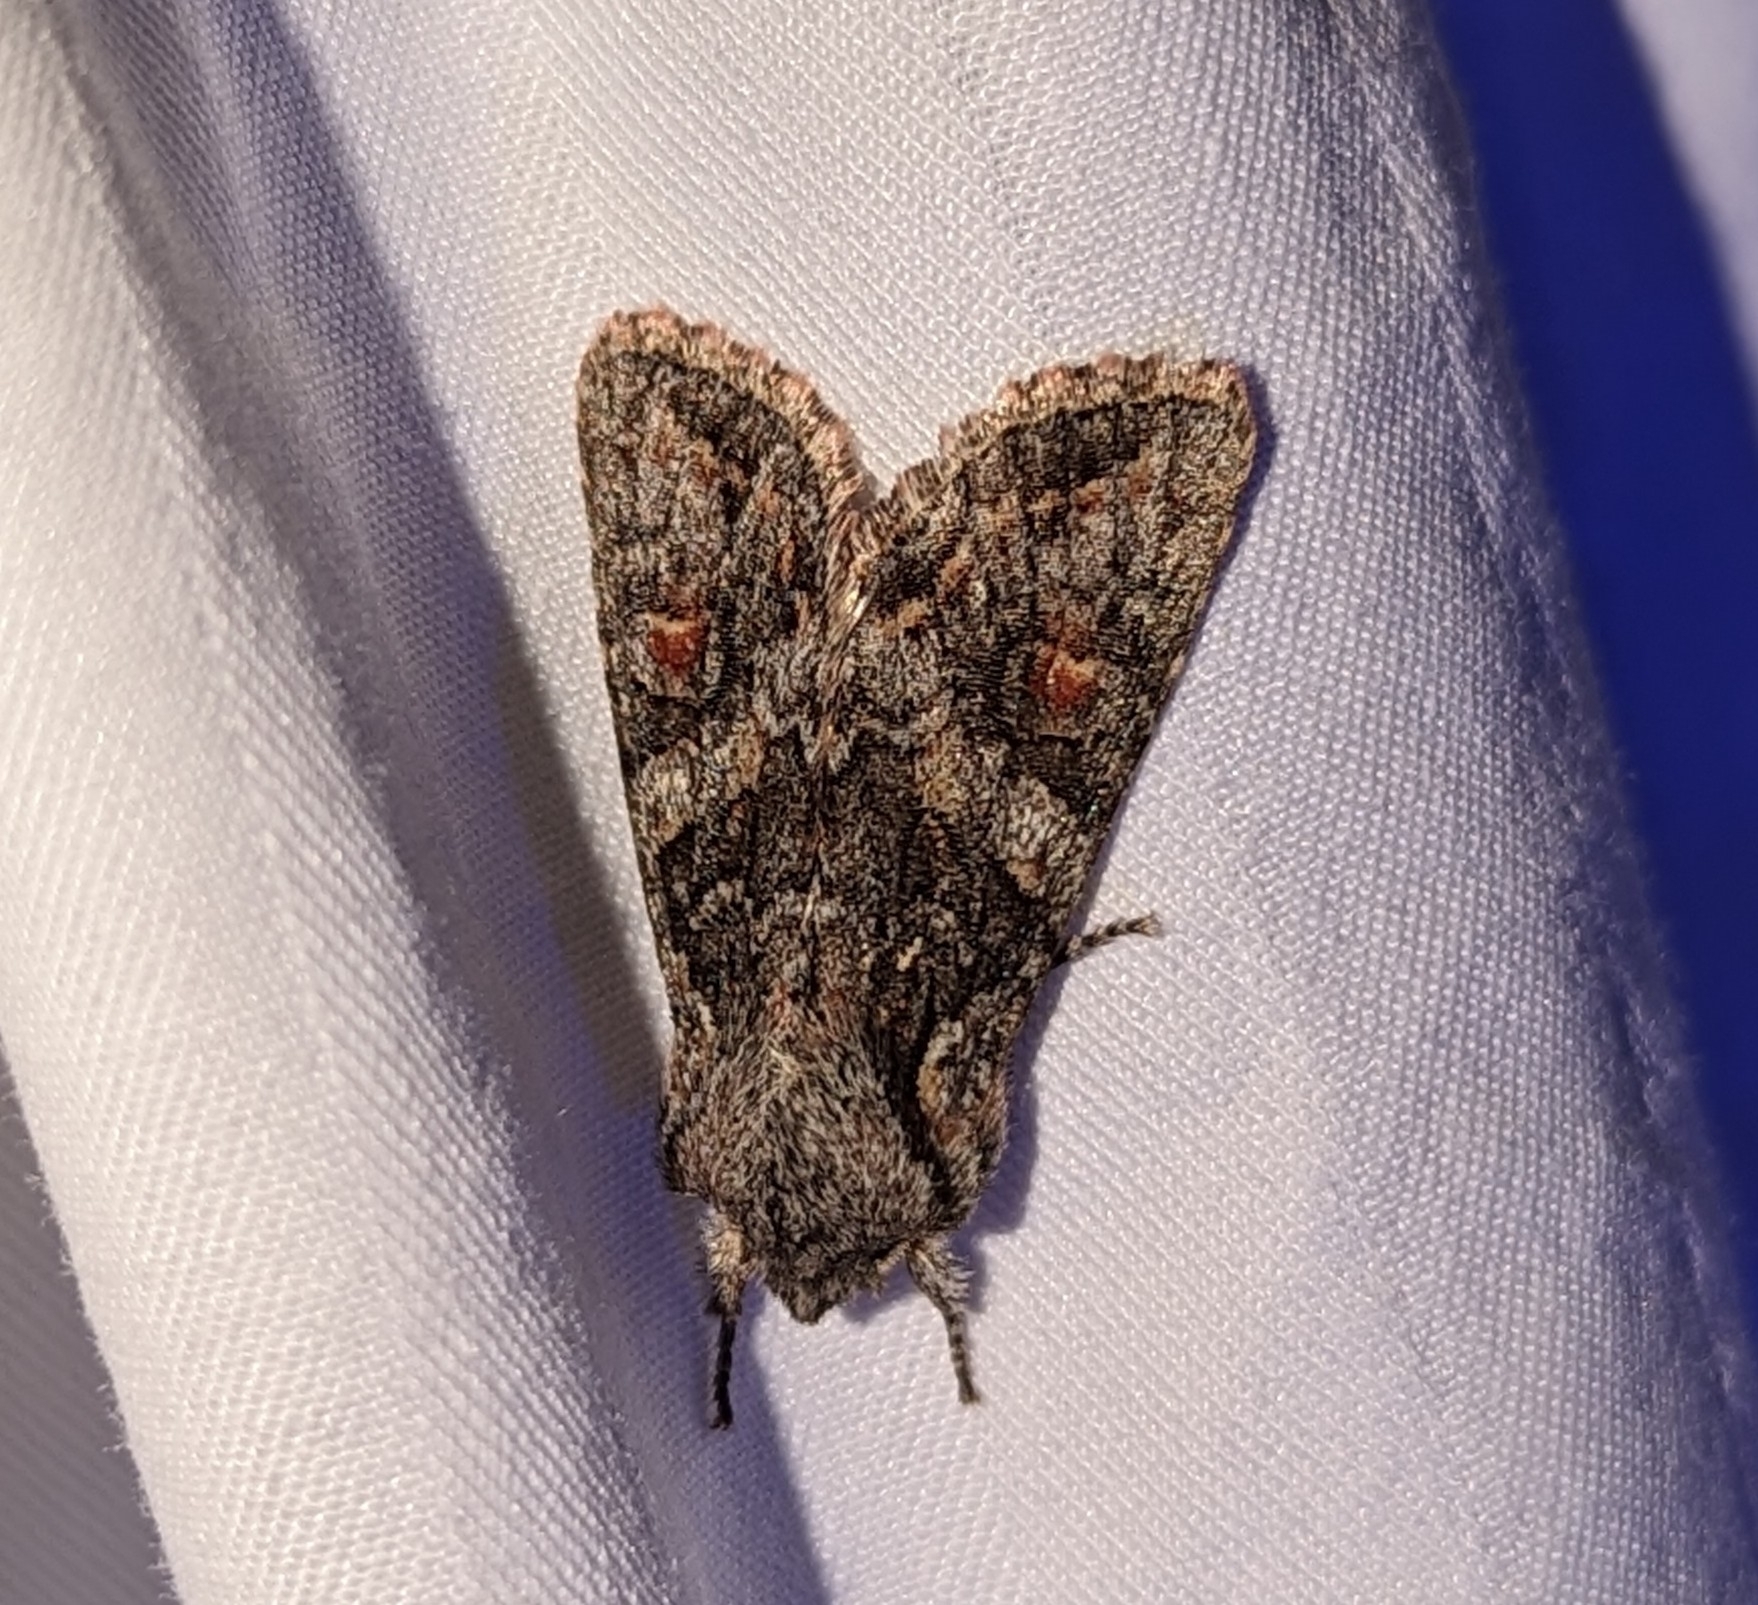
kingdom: Animalia
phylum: Arthropoda
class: Insecta
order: Lepidoptera
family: Noctuidae
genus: Egira
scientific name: Egira hiemalis
